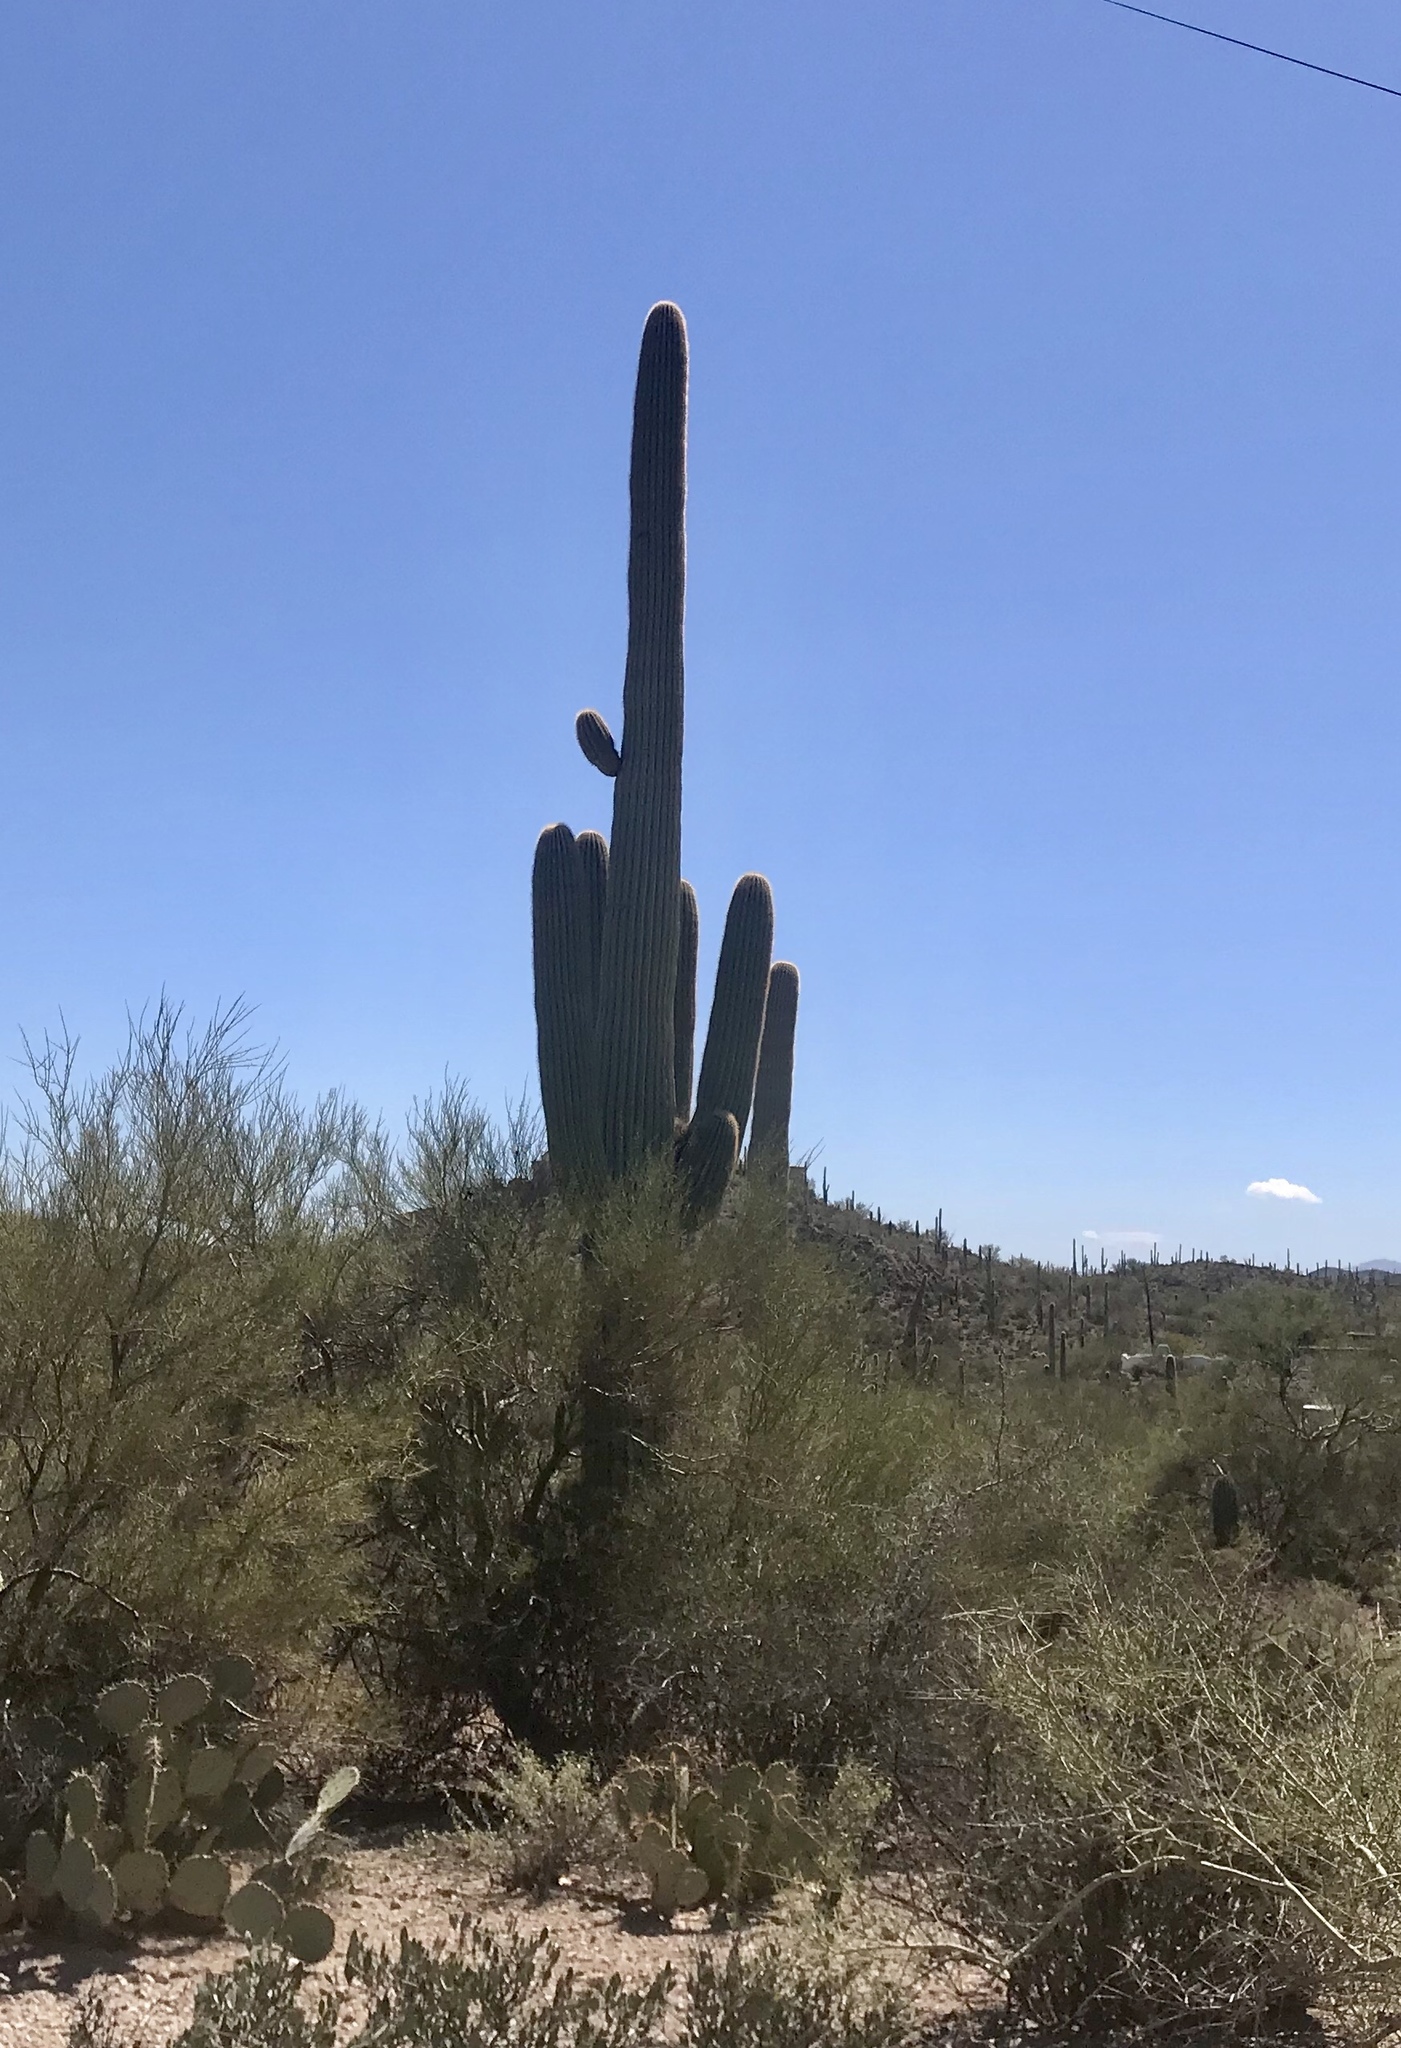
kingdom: Plantae
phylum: Tracheophyta
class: Magnoliopsida
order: Caryophyllales
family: Cactaceae
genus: Carnegiea
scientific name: Carnegiea gigantea
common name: Saguaro
